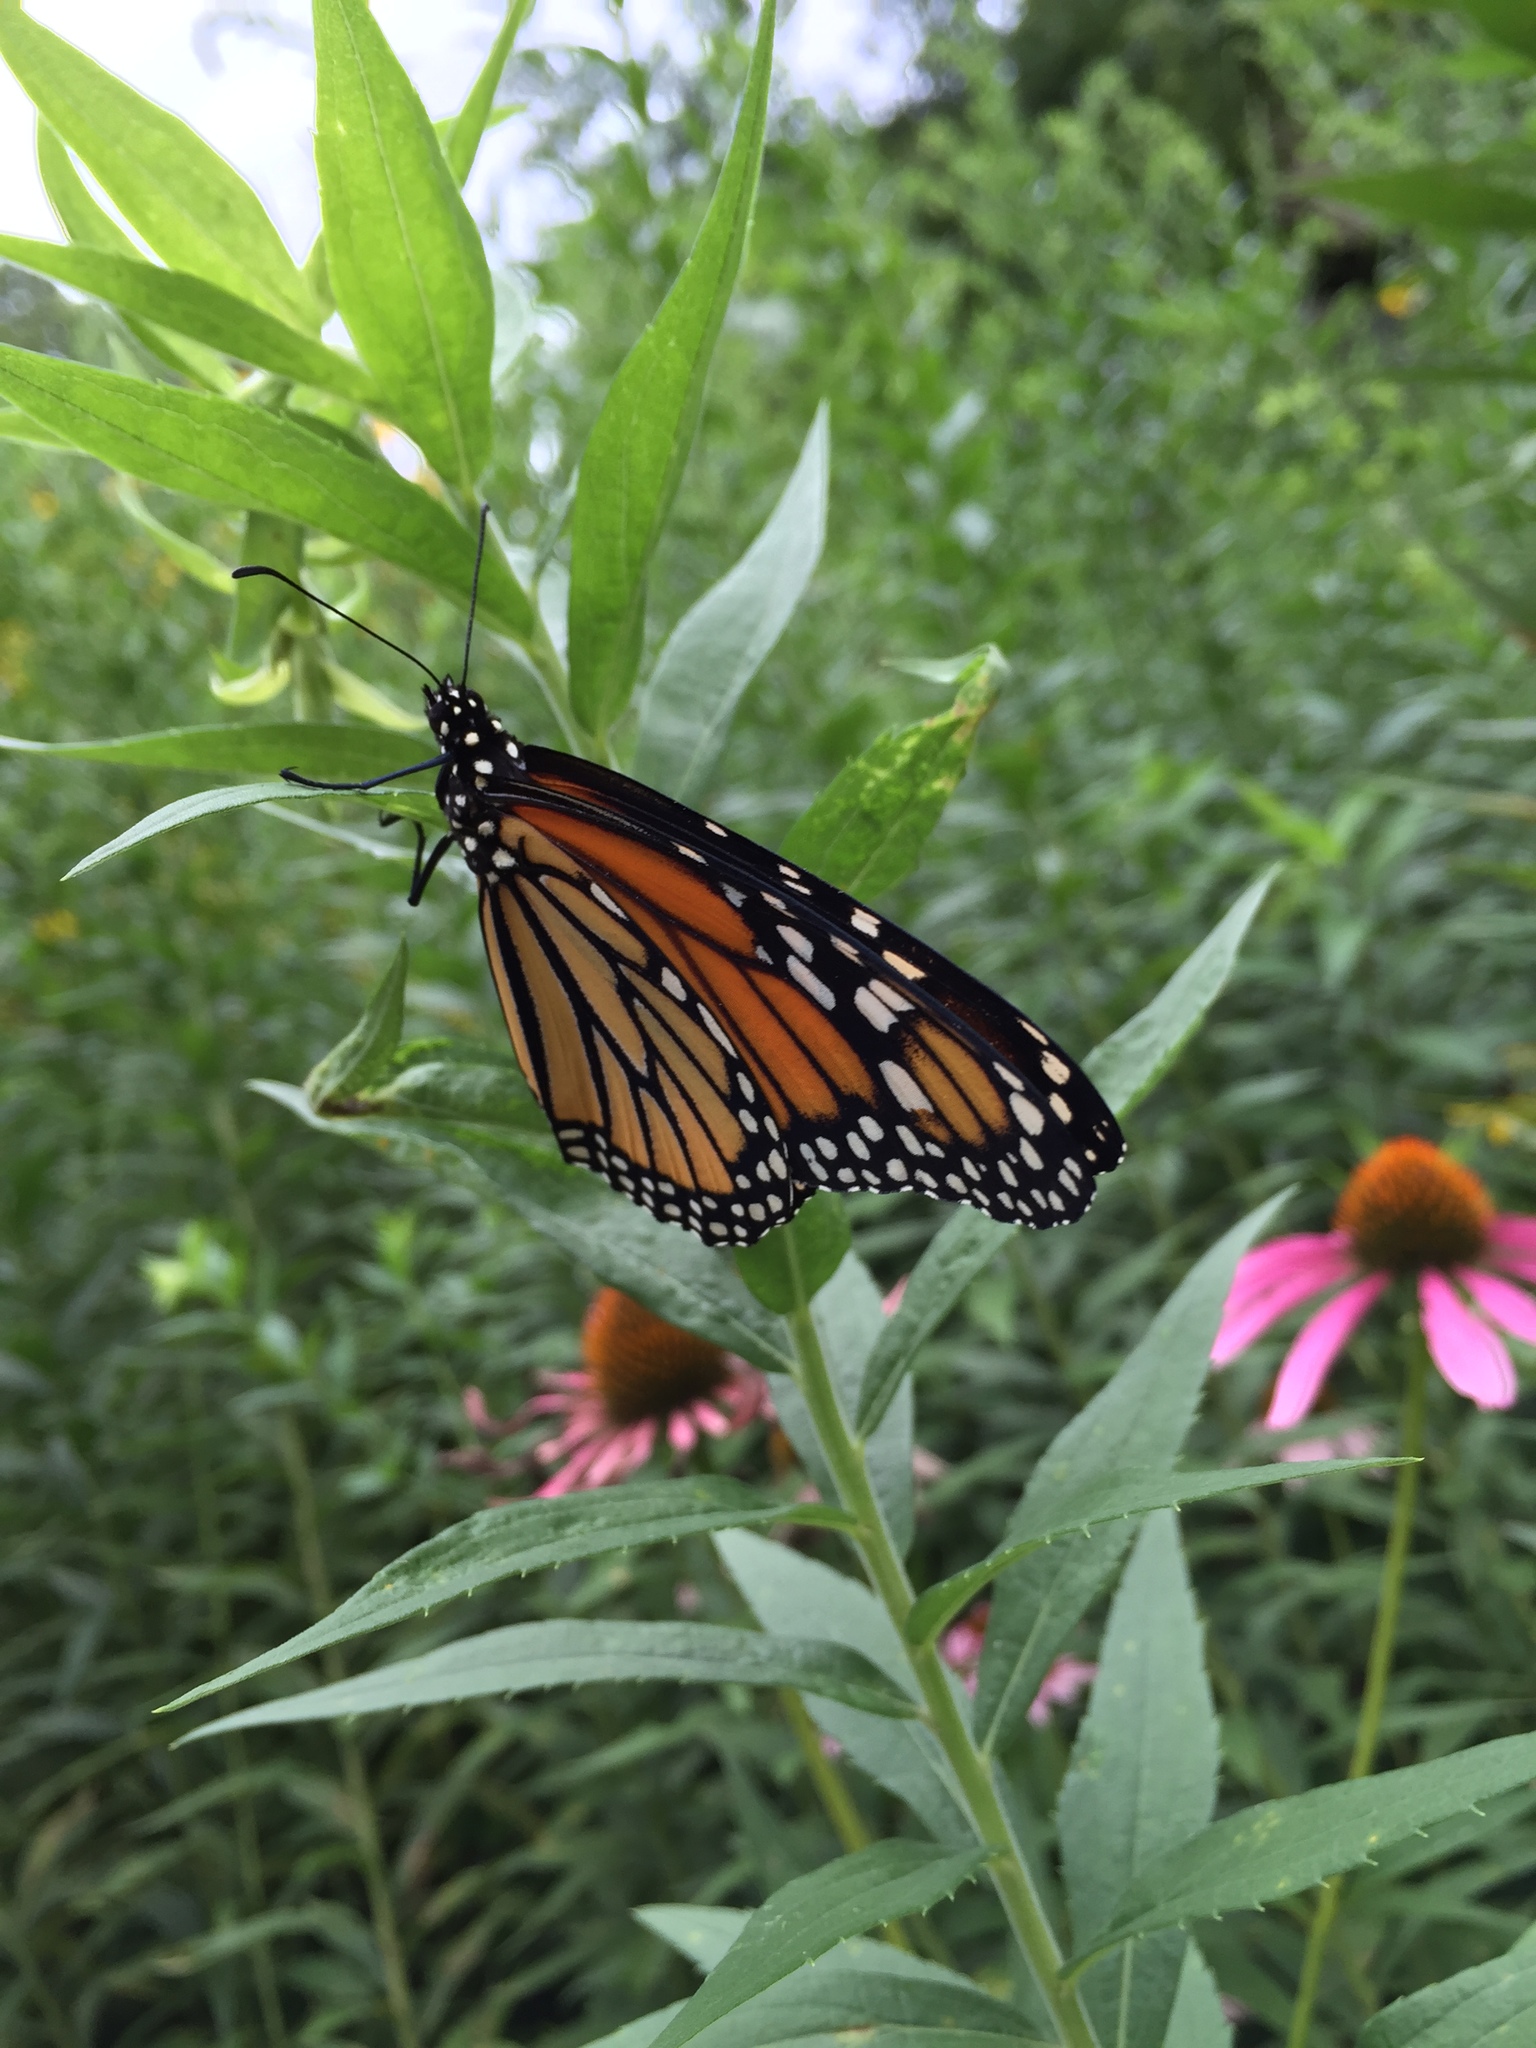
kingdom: Animalia
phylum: Arthropoda
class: Insecta
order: Lepidoptera
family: Nymphalidae
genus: Danaus
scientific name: Danaus plexippus
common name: Monarch
